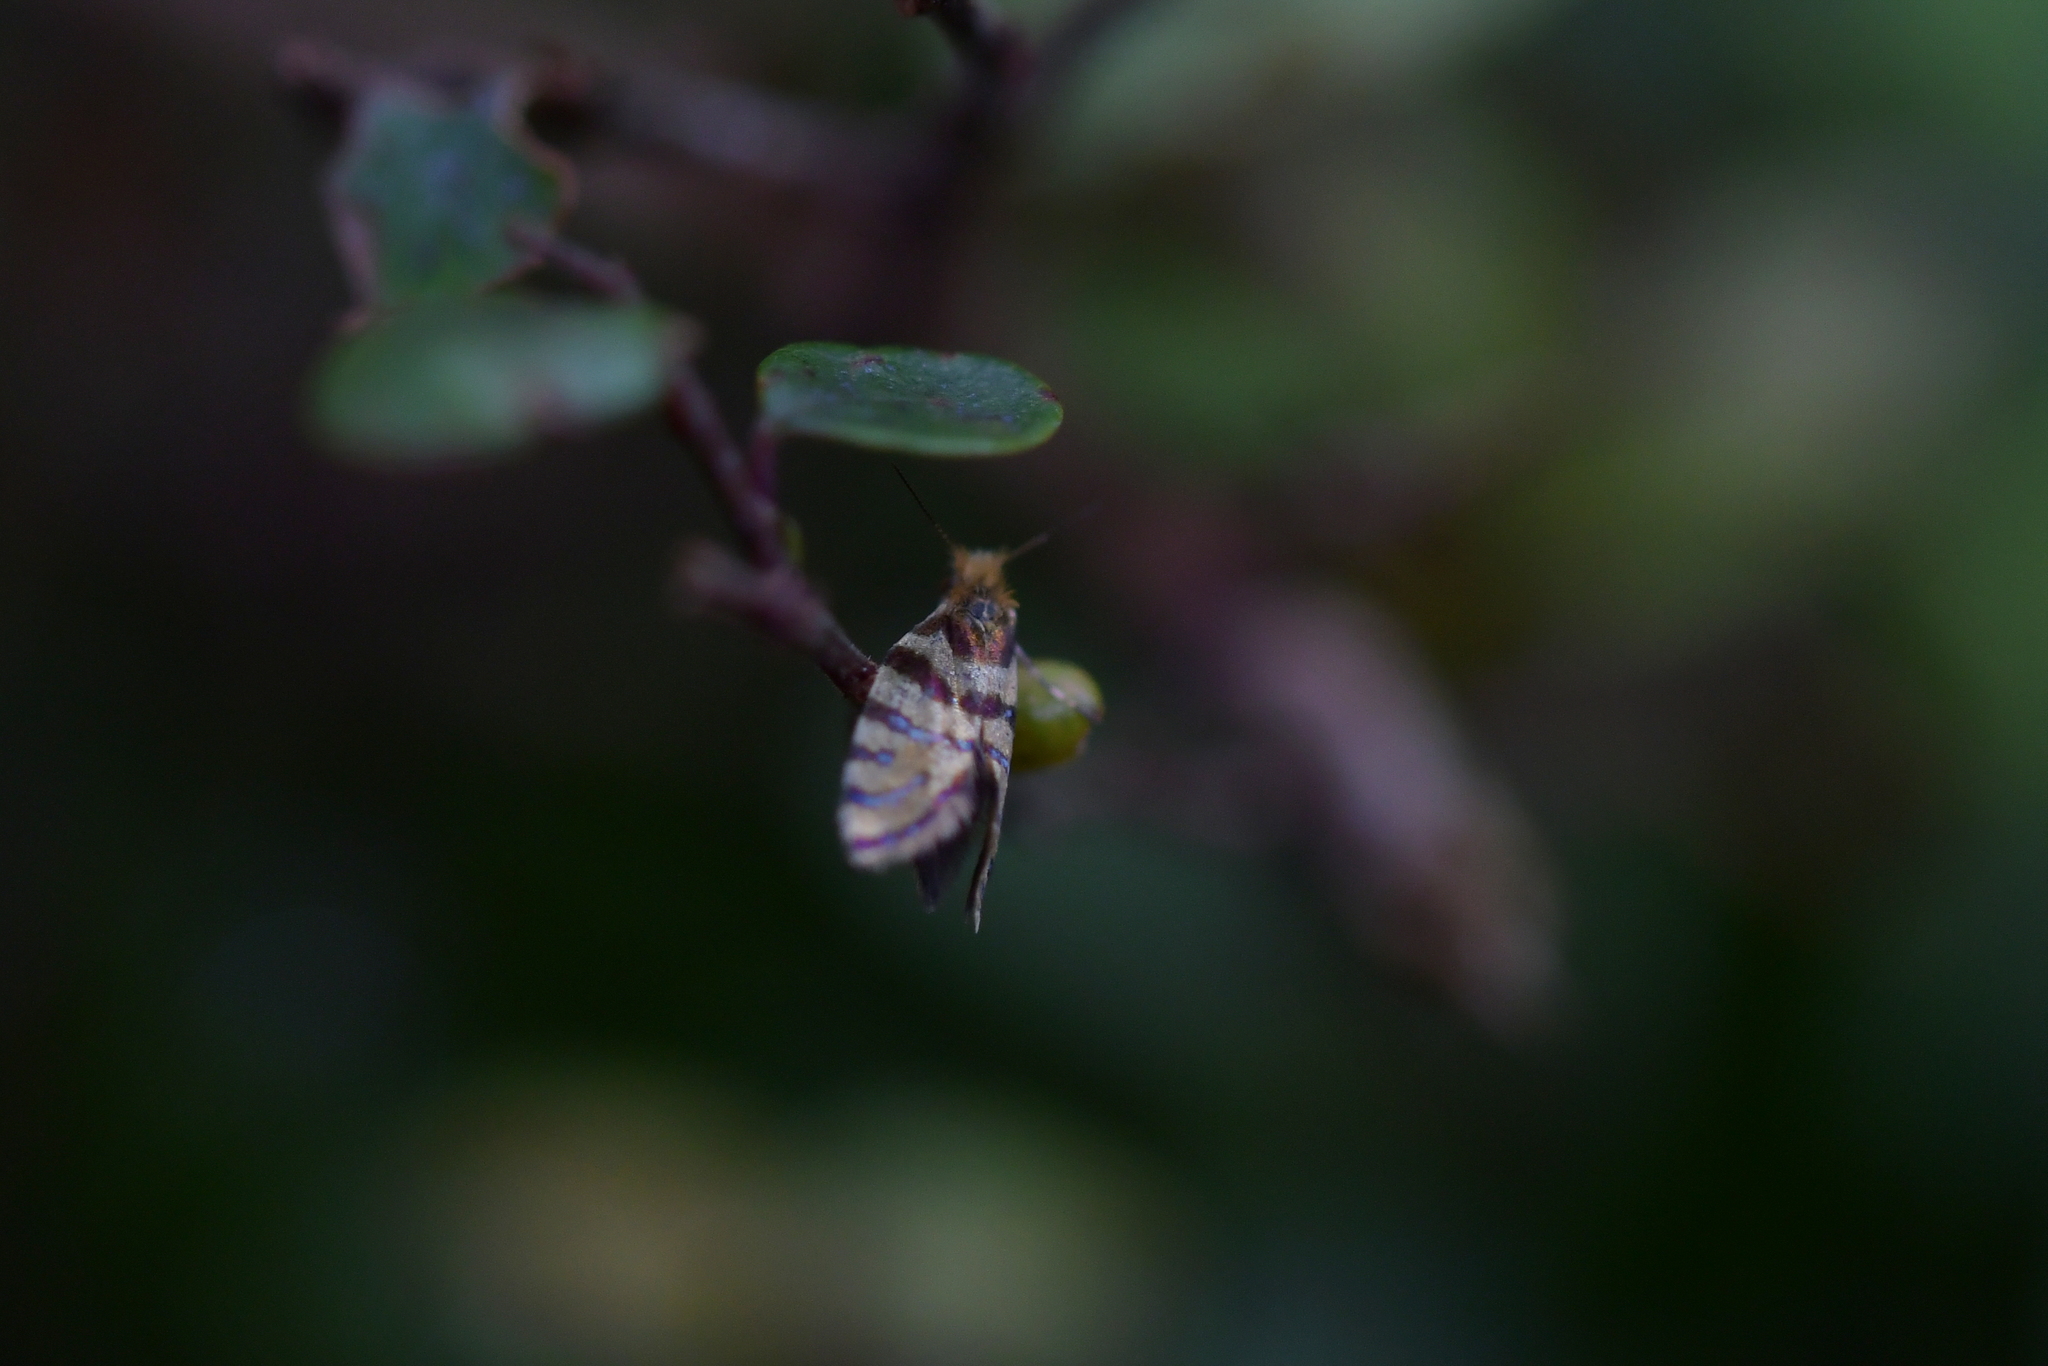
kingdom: Animalia
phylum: Arthropoda
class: Insecta
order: Lepidoptera
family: Micropterigidae
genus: Micropardalis
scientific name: Micropardalis aurella
